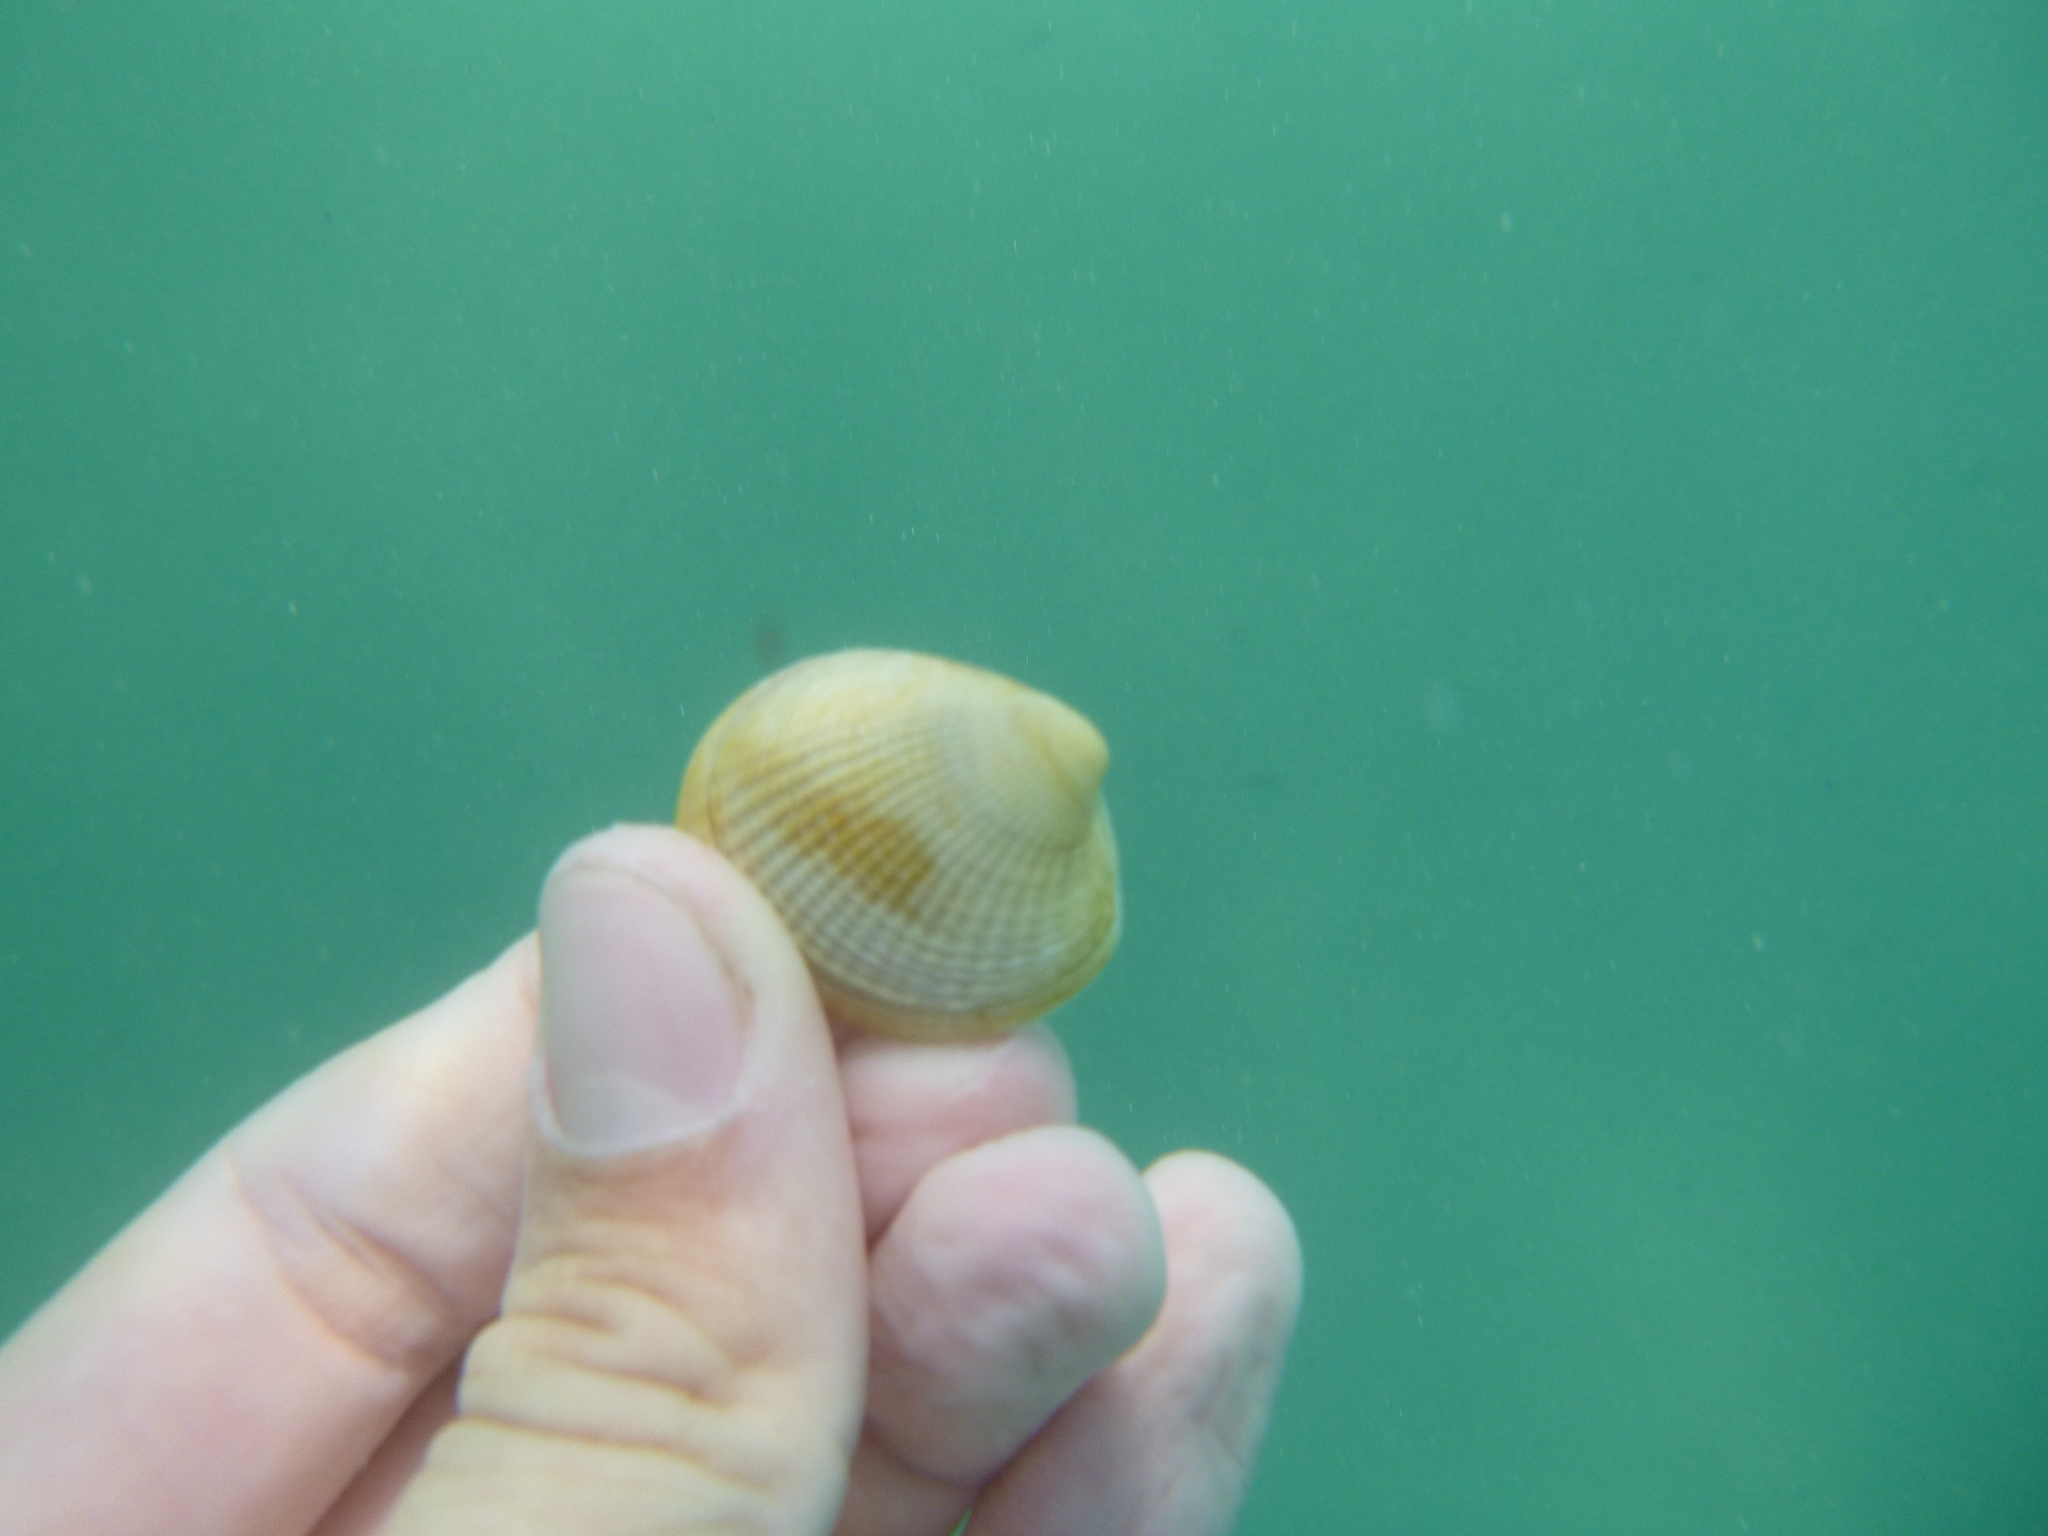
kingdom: Animalia
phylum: Mollusca
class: Bivalvia
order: Venerida
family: Veneridae
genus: Austrovenus
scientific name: Austrovenus stutchburyi
